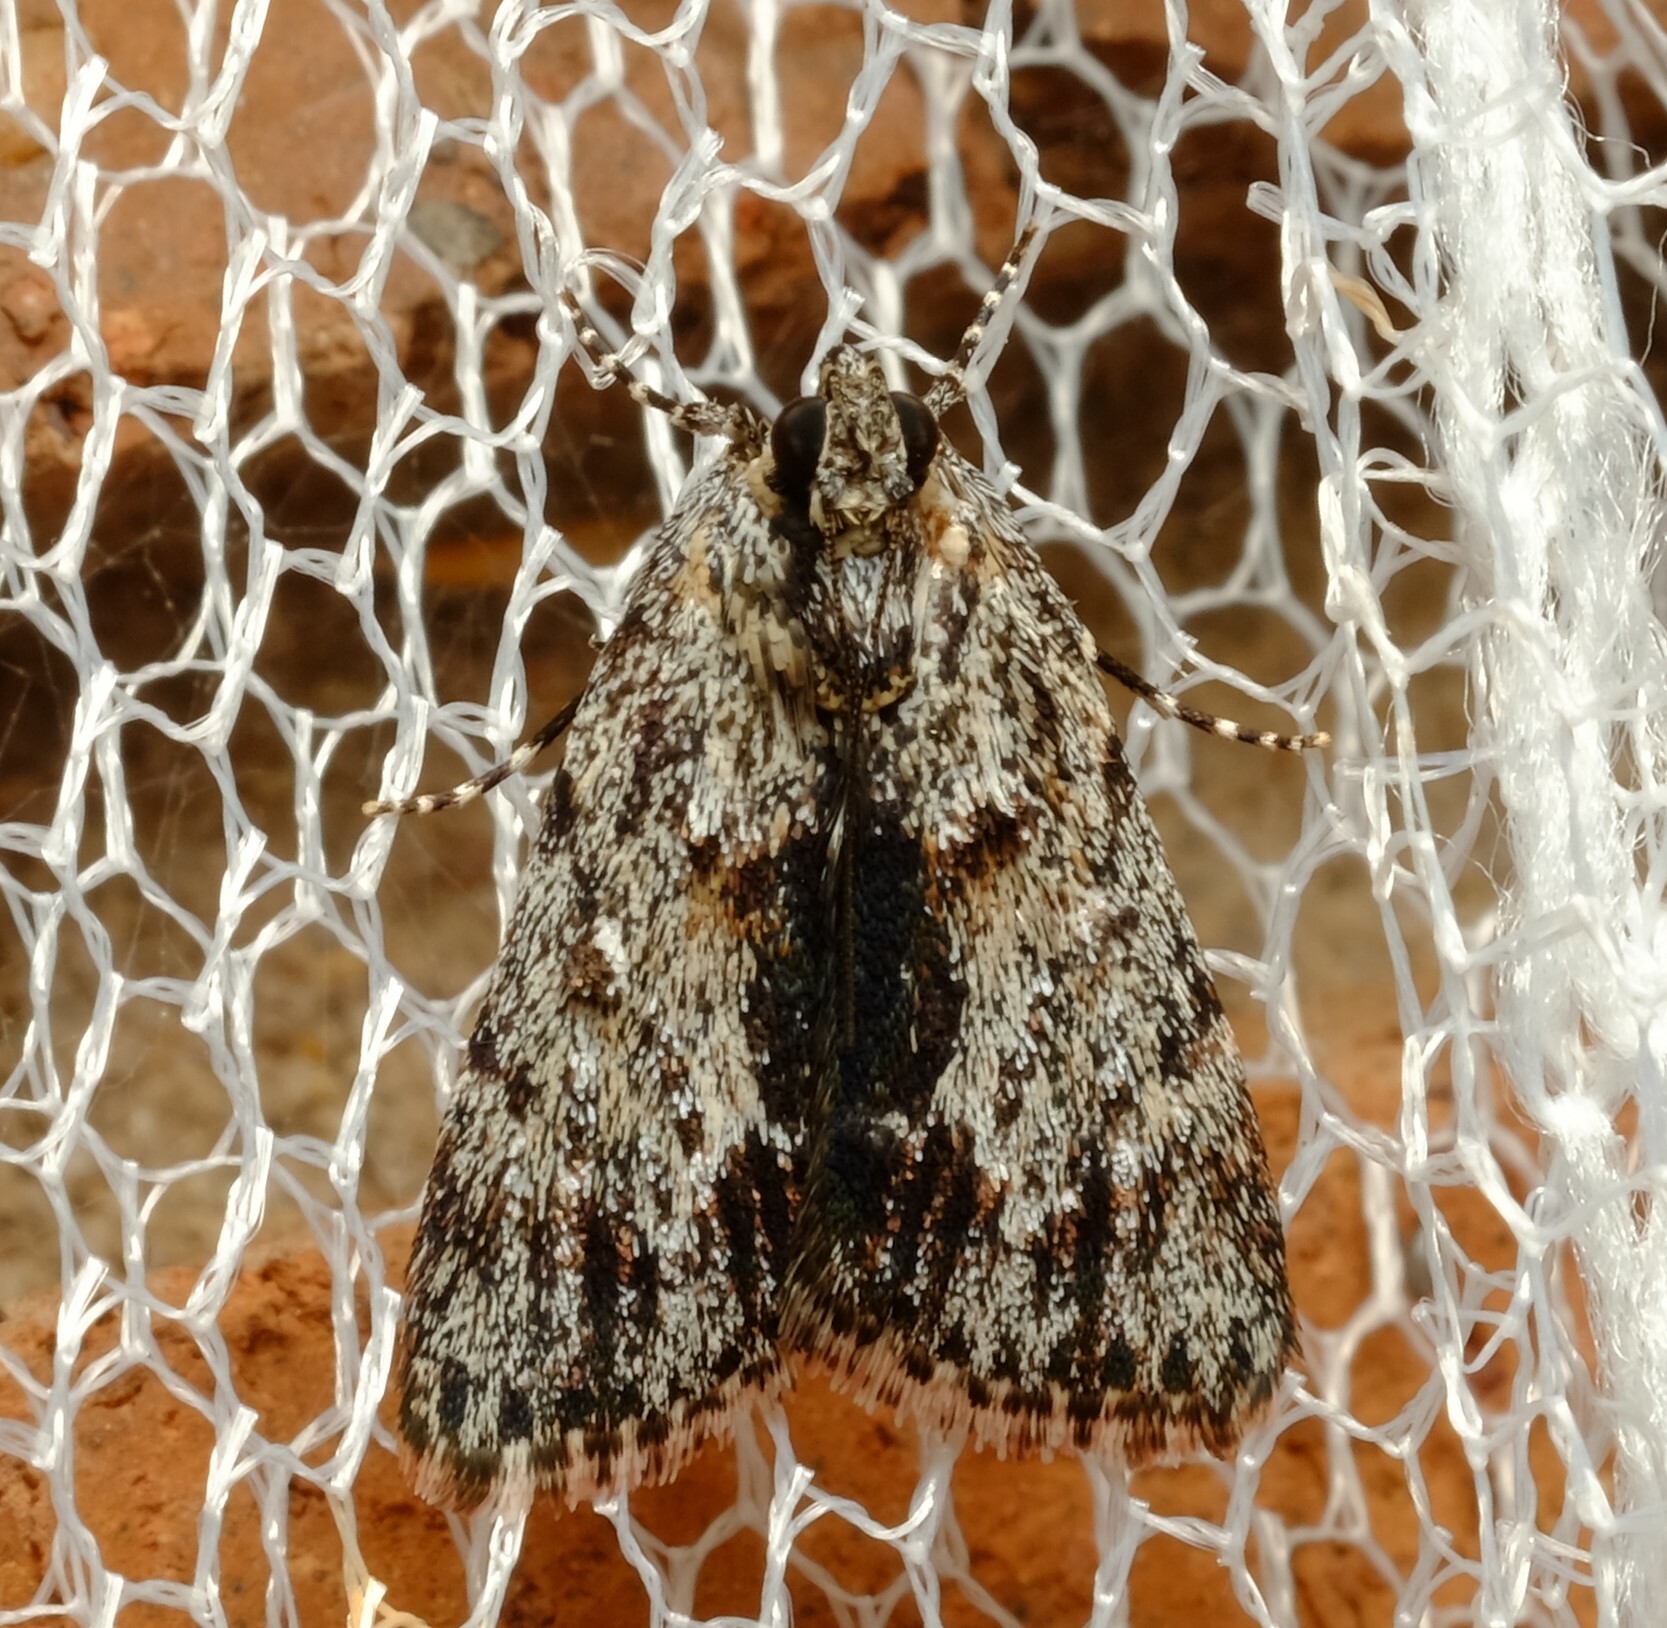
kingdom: Animalia
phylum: Arthropoda
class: Insecta
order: Lepidoptera
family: Pyralidae
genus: Spectrotrota
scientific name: Spectrotrota fimbrialis
